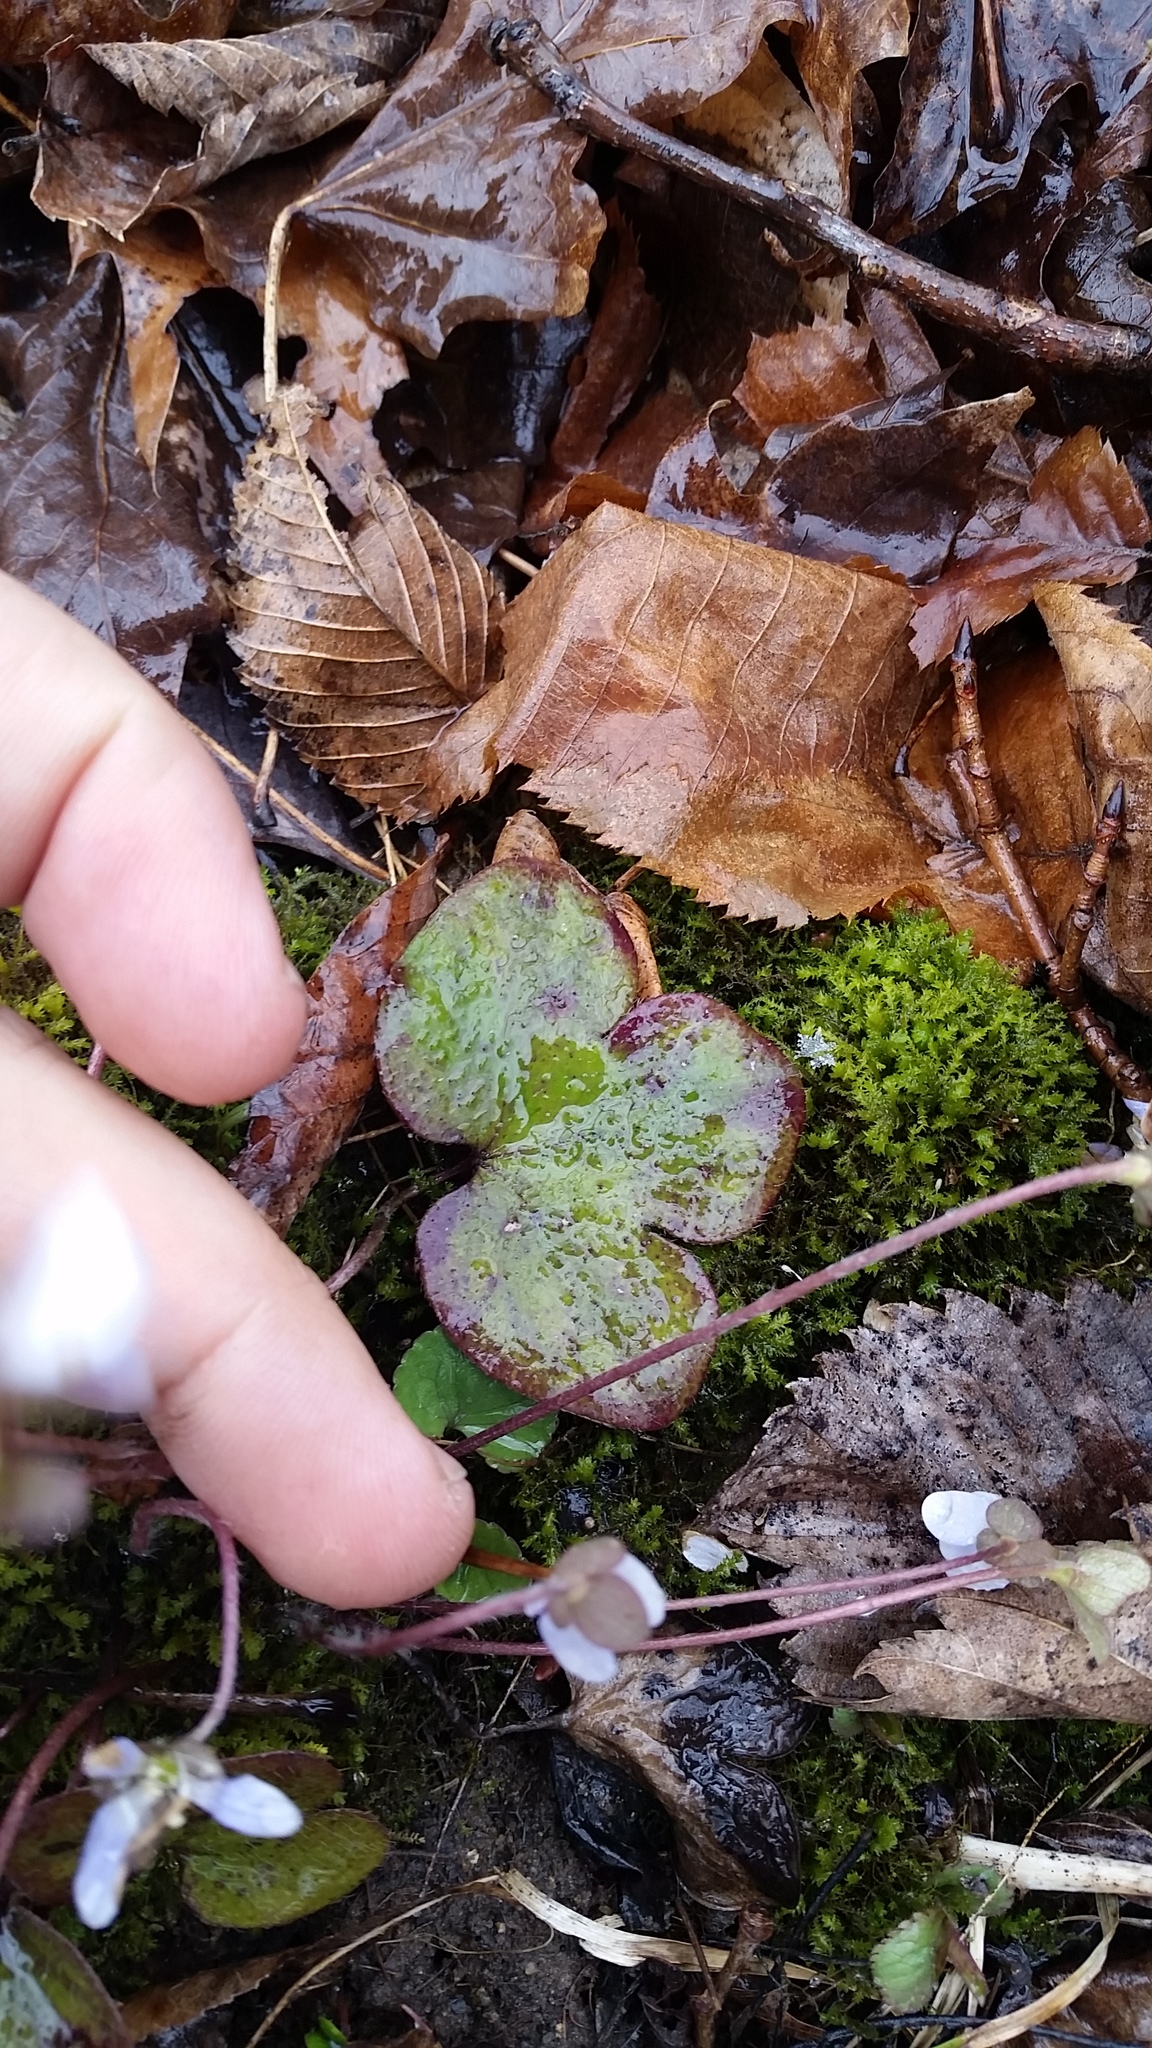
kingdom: Plantae
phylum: Tracheophyta
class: Magnoliopsida
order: Ranunculales
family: Ranunculaceae
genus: Hepatica
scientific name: Hepatica americana
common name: American hepatica
